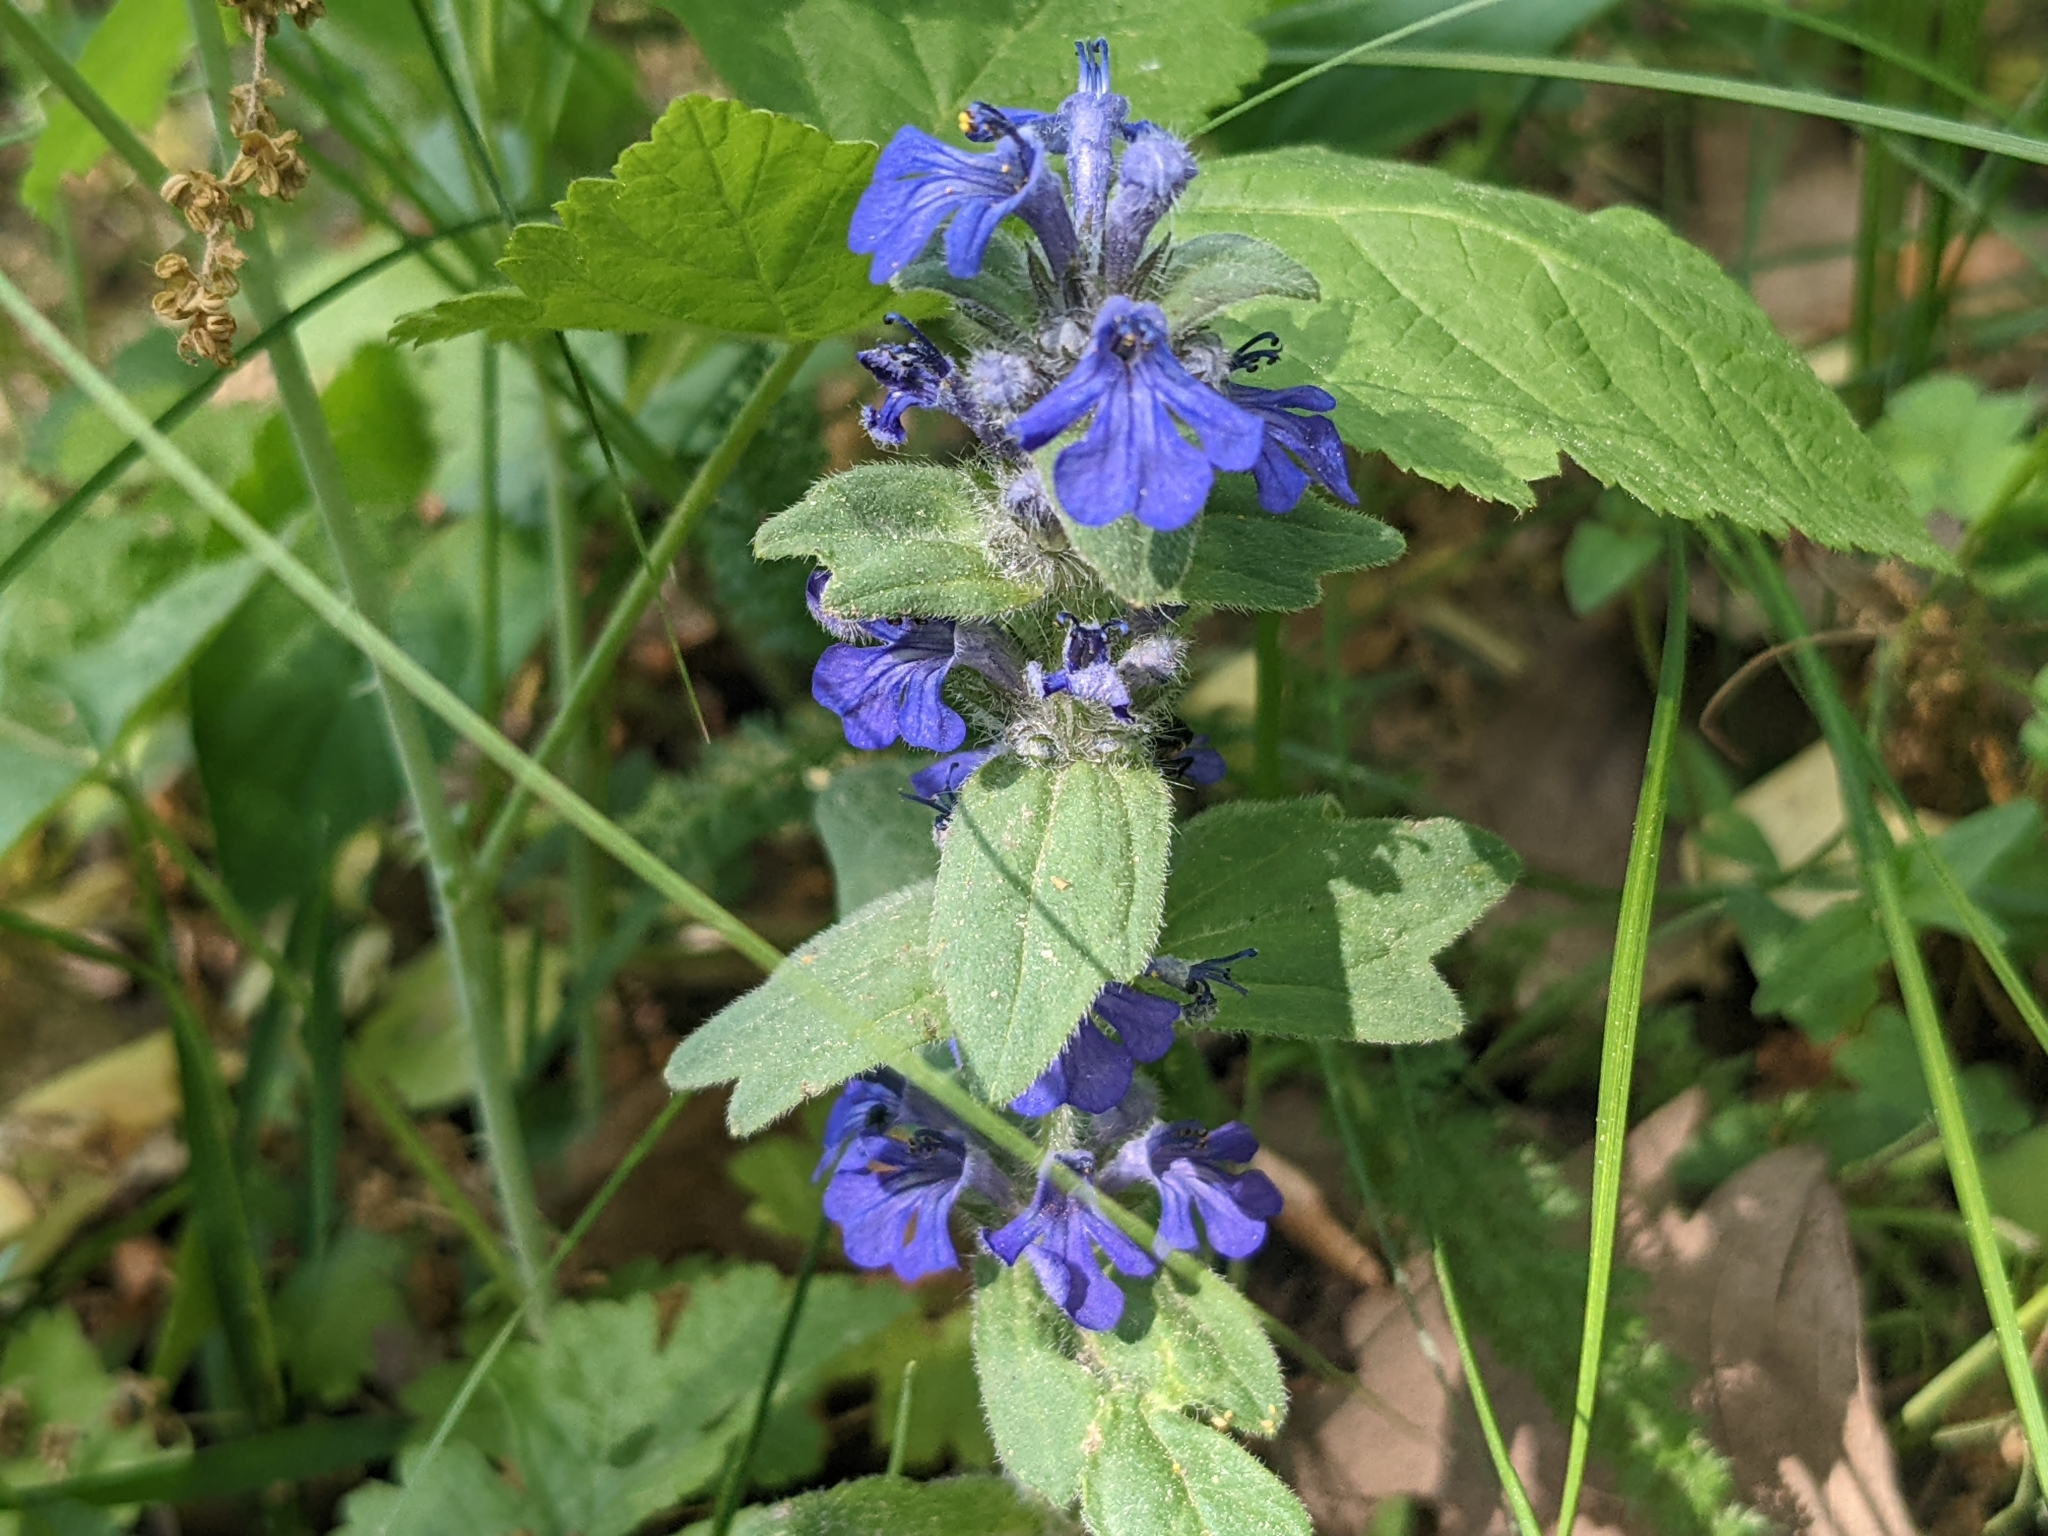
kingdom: Plantae
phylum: Tracheophyta
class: Magnoliopsida
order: Lamiales
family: Lamiaceae
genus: Ajuga
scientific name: Ajuga genevensis
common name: Blue bugle
